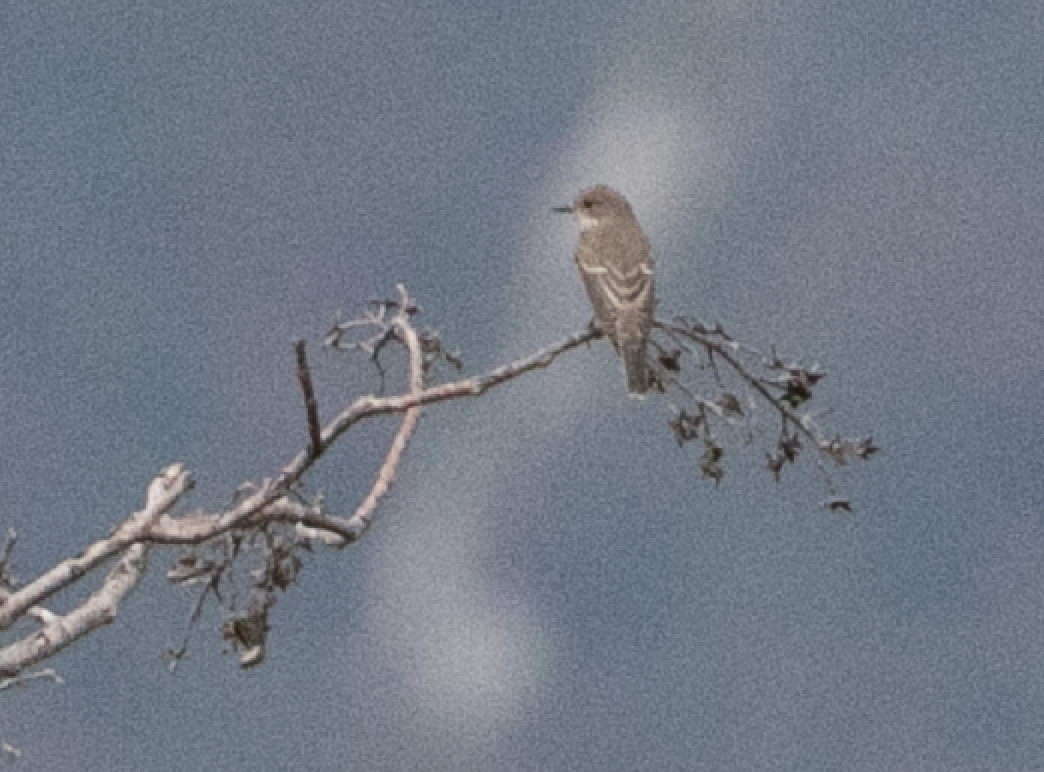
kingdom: Animalia
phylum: Chordata
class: Aves
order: Passeriformes
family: Muscicapidae
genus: Ficedula
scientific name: Ficedula hypoleuca
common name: European pied flycatcher
